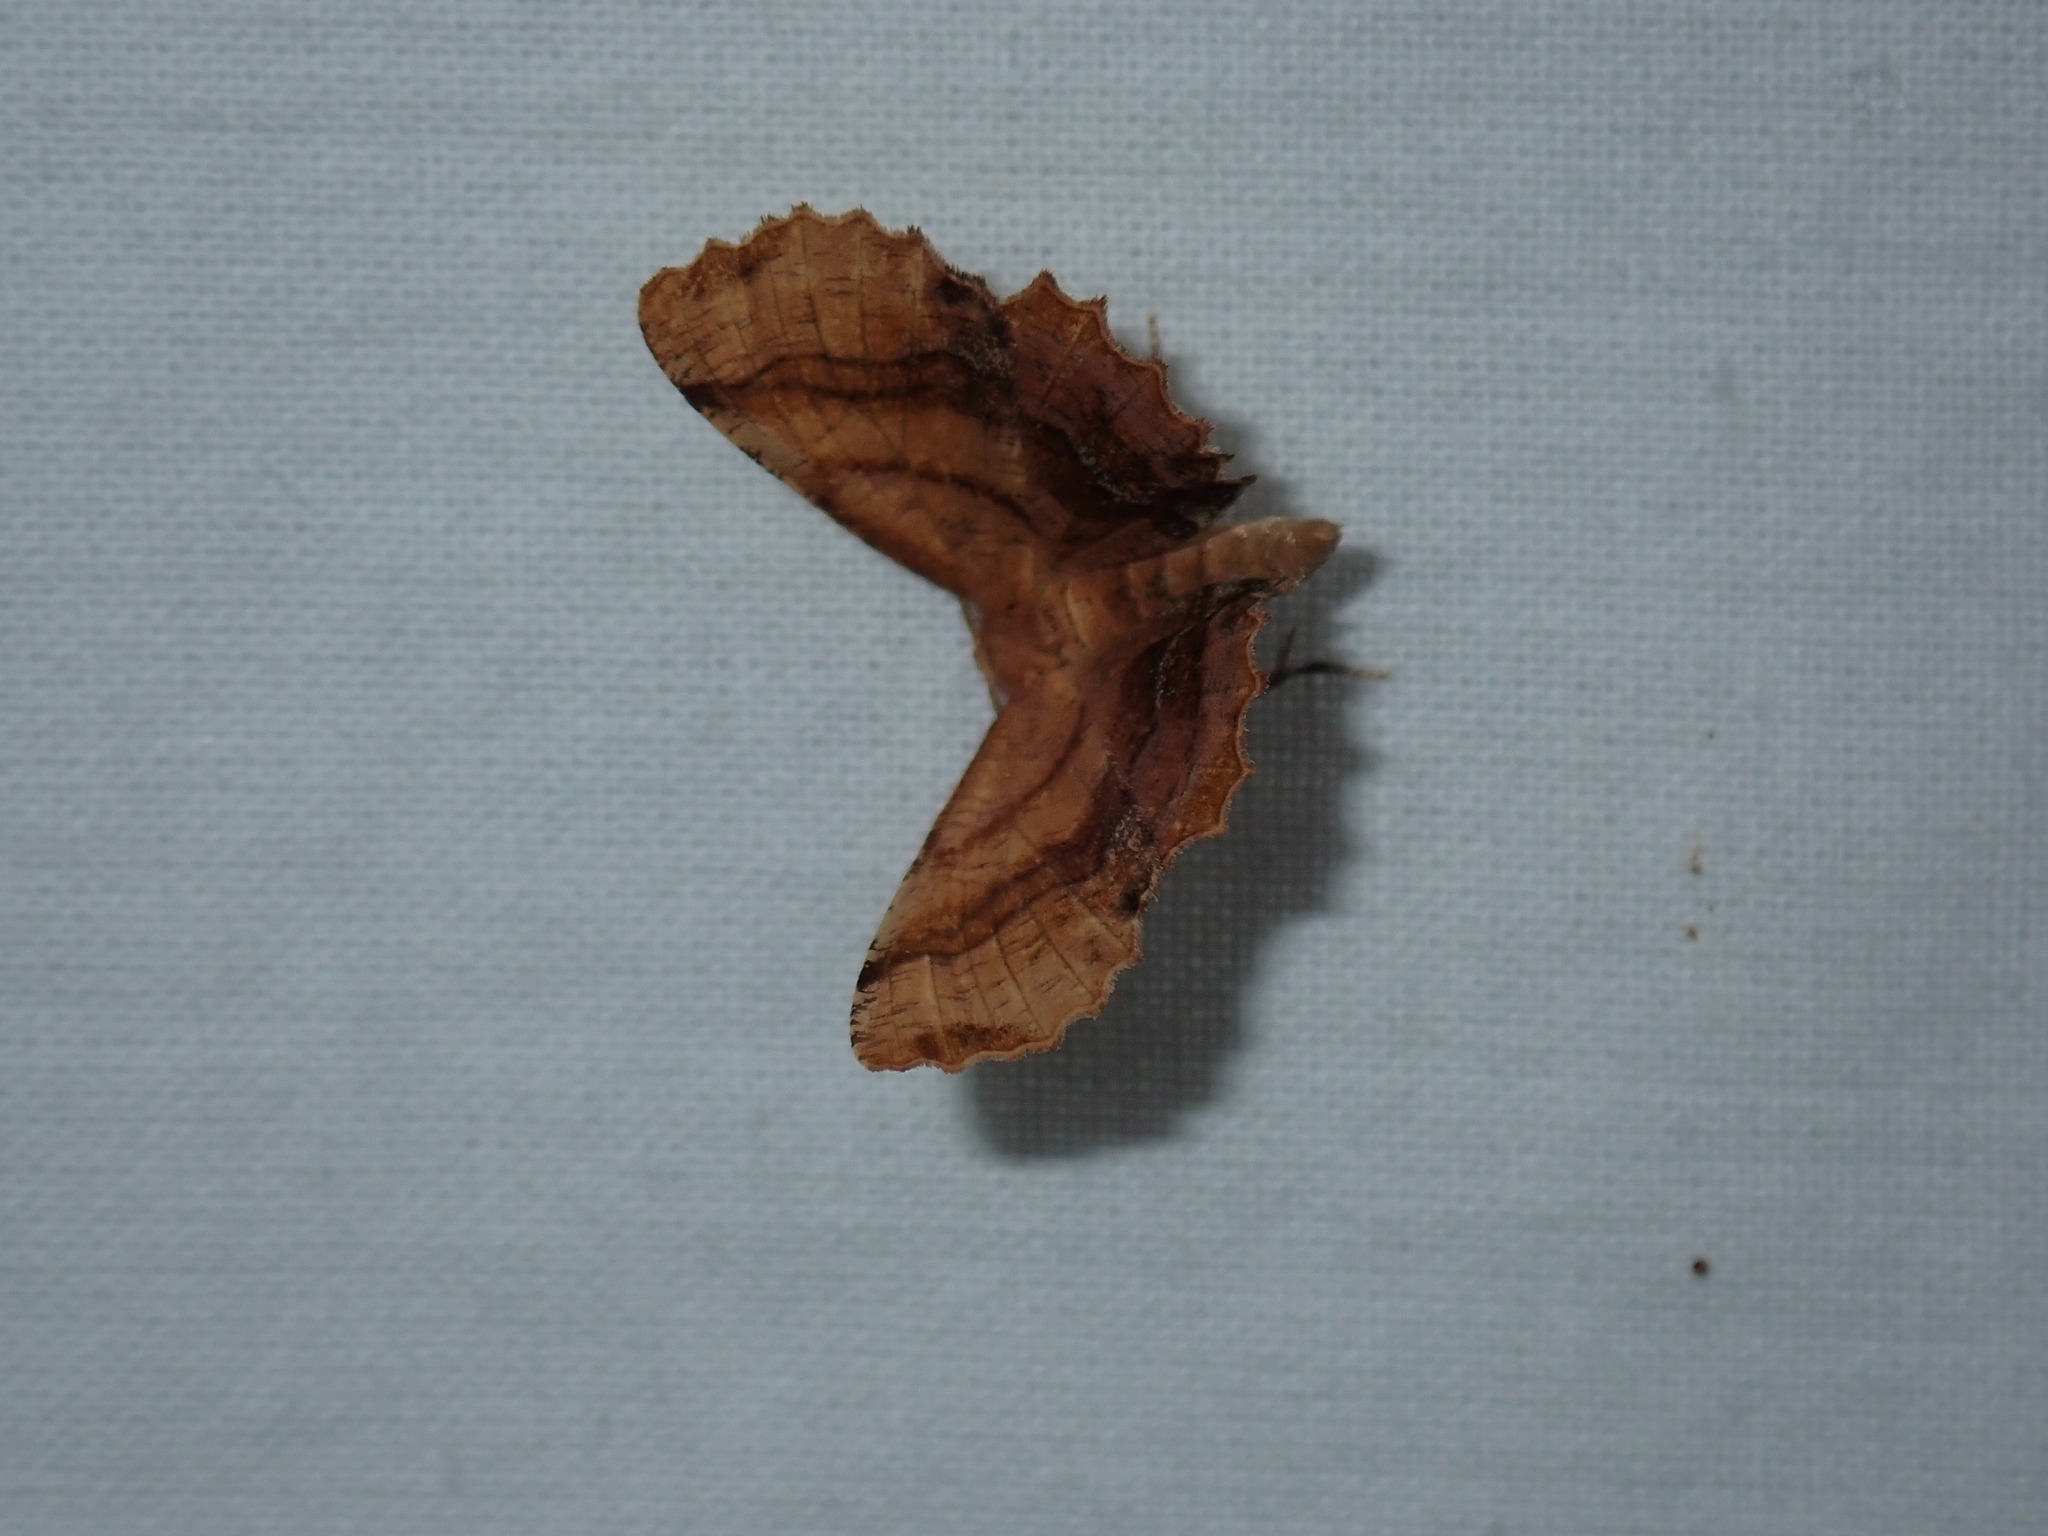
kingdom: Animalia
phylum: Arthropoda
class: Insecta
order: Lepidoptera
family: Geometridae
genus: Cepphis
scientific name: Cepphis armataria
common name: Scallop moth
